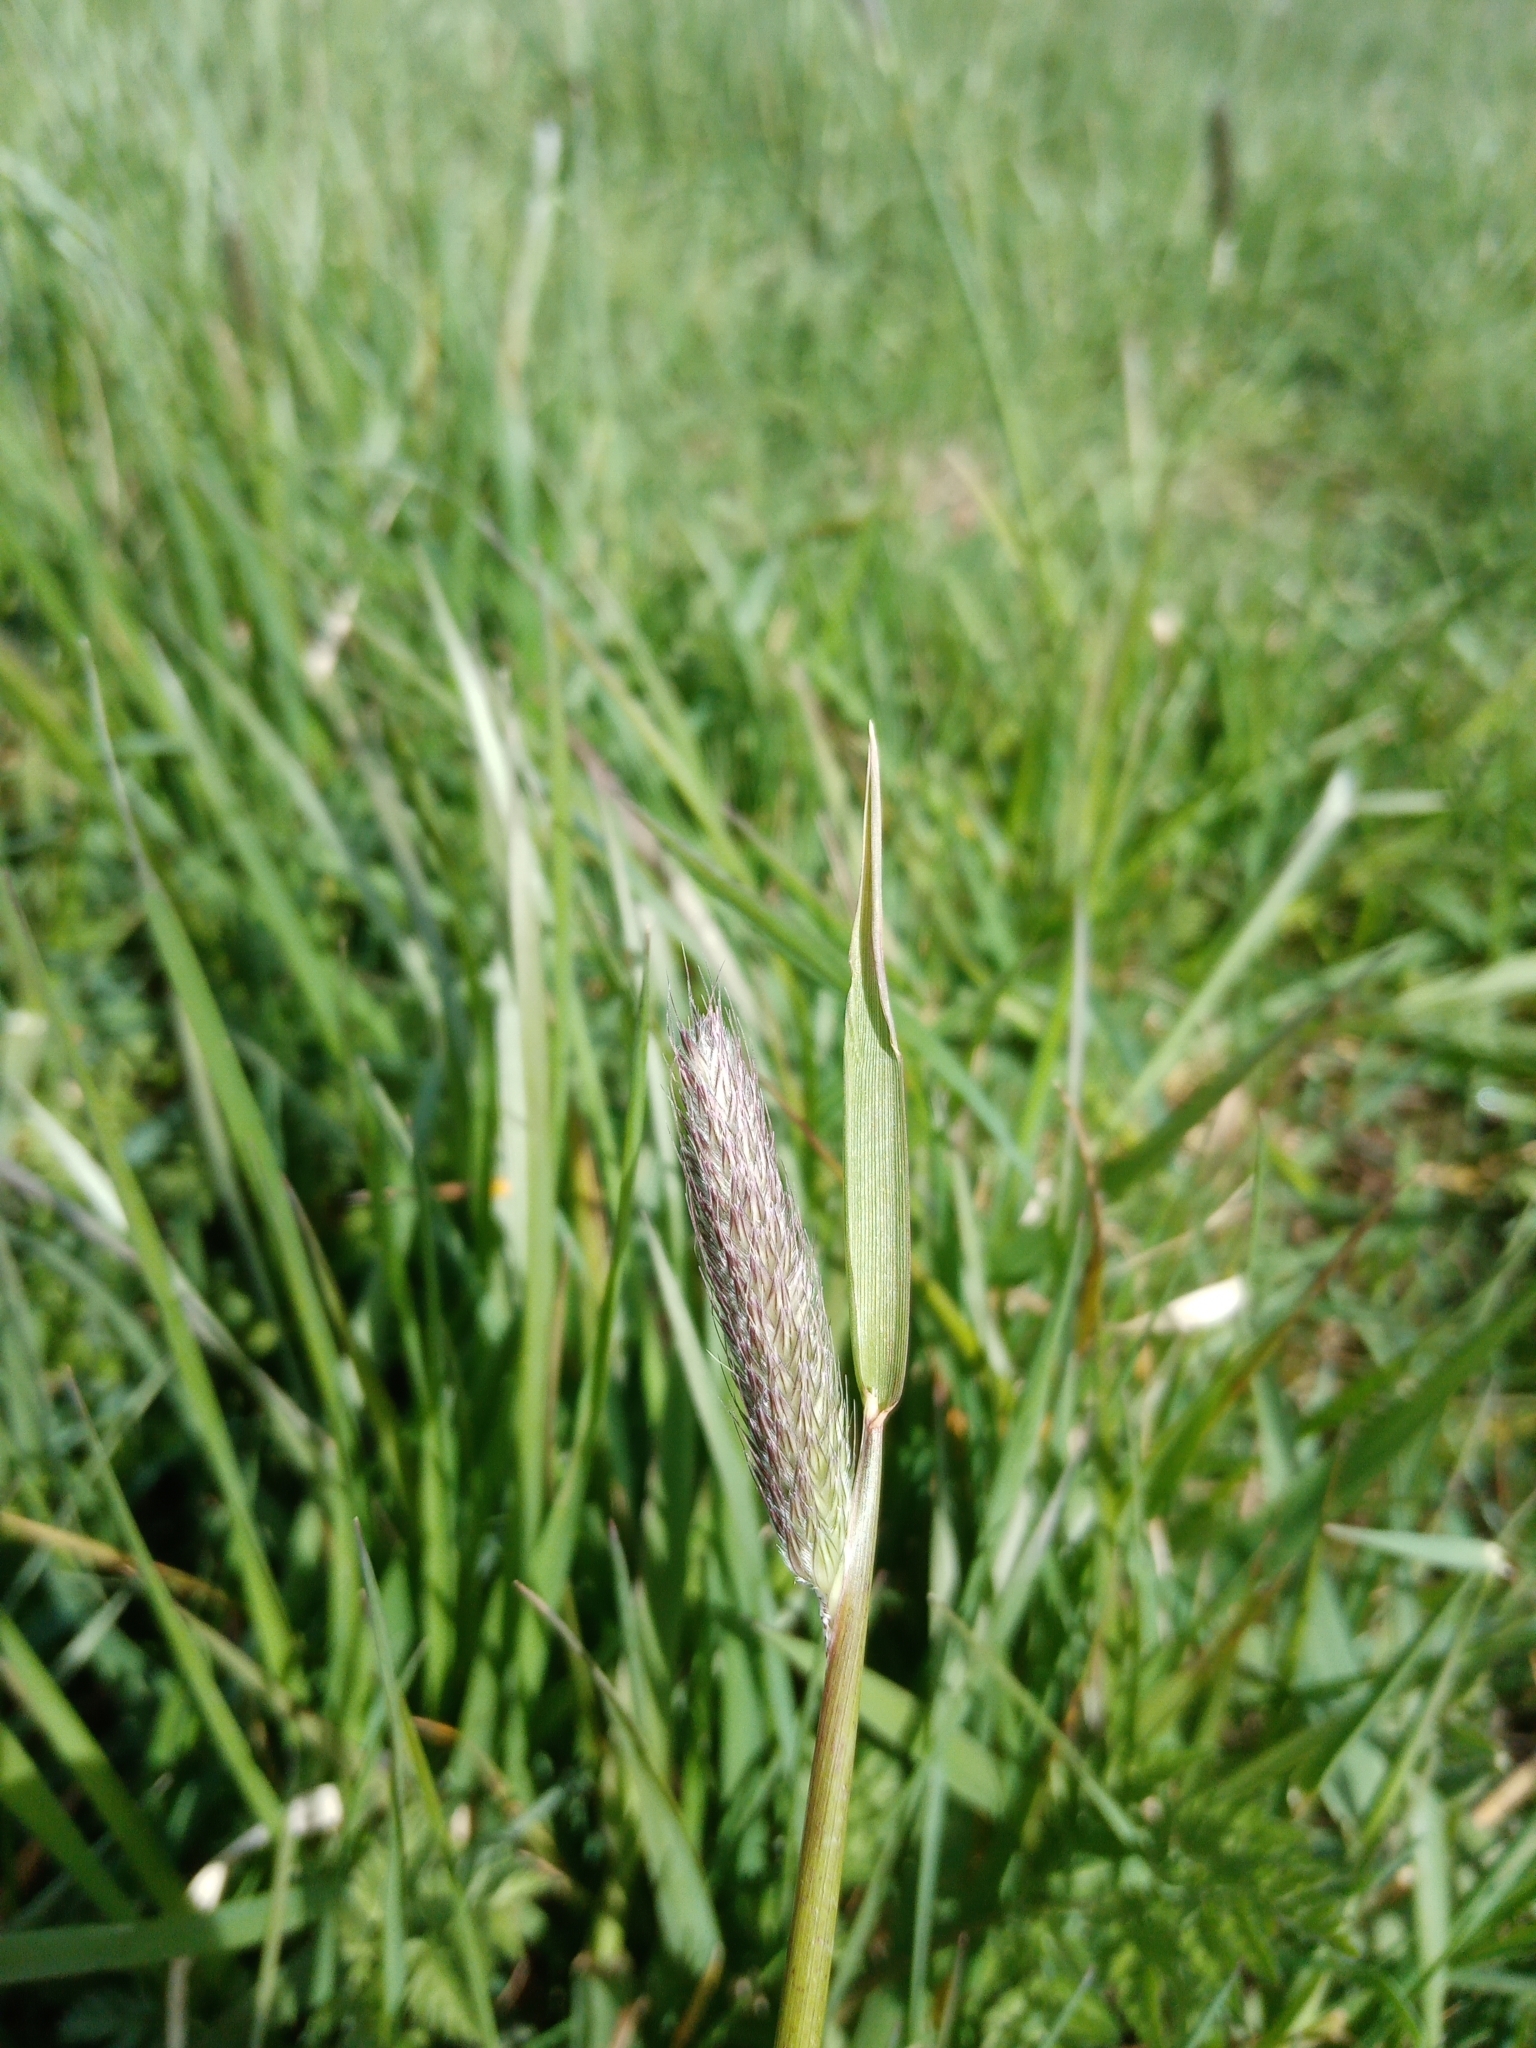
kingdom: Plantae
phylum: Tracheophyta
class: Liliopsida
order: Poales
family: Poaceae
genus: Alopecurus
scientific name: Alopecurus pratensis
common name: Meadow foxtail
